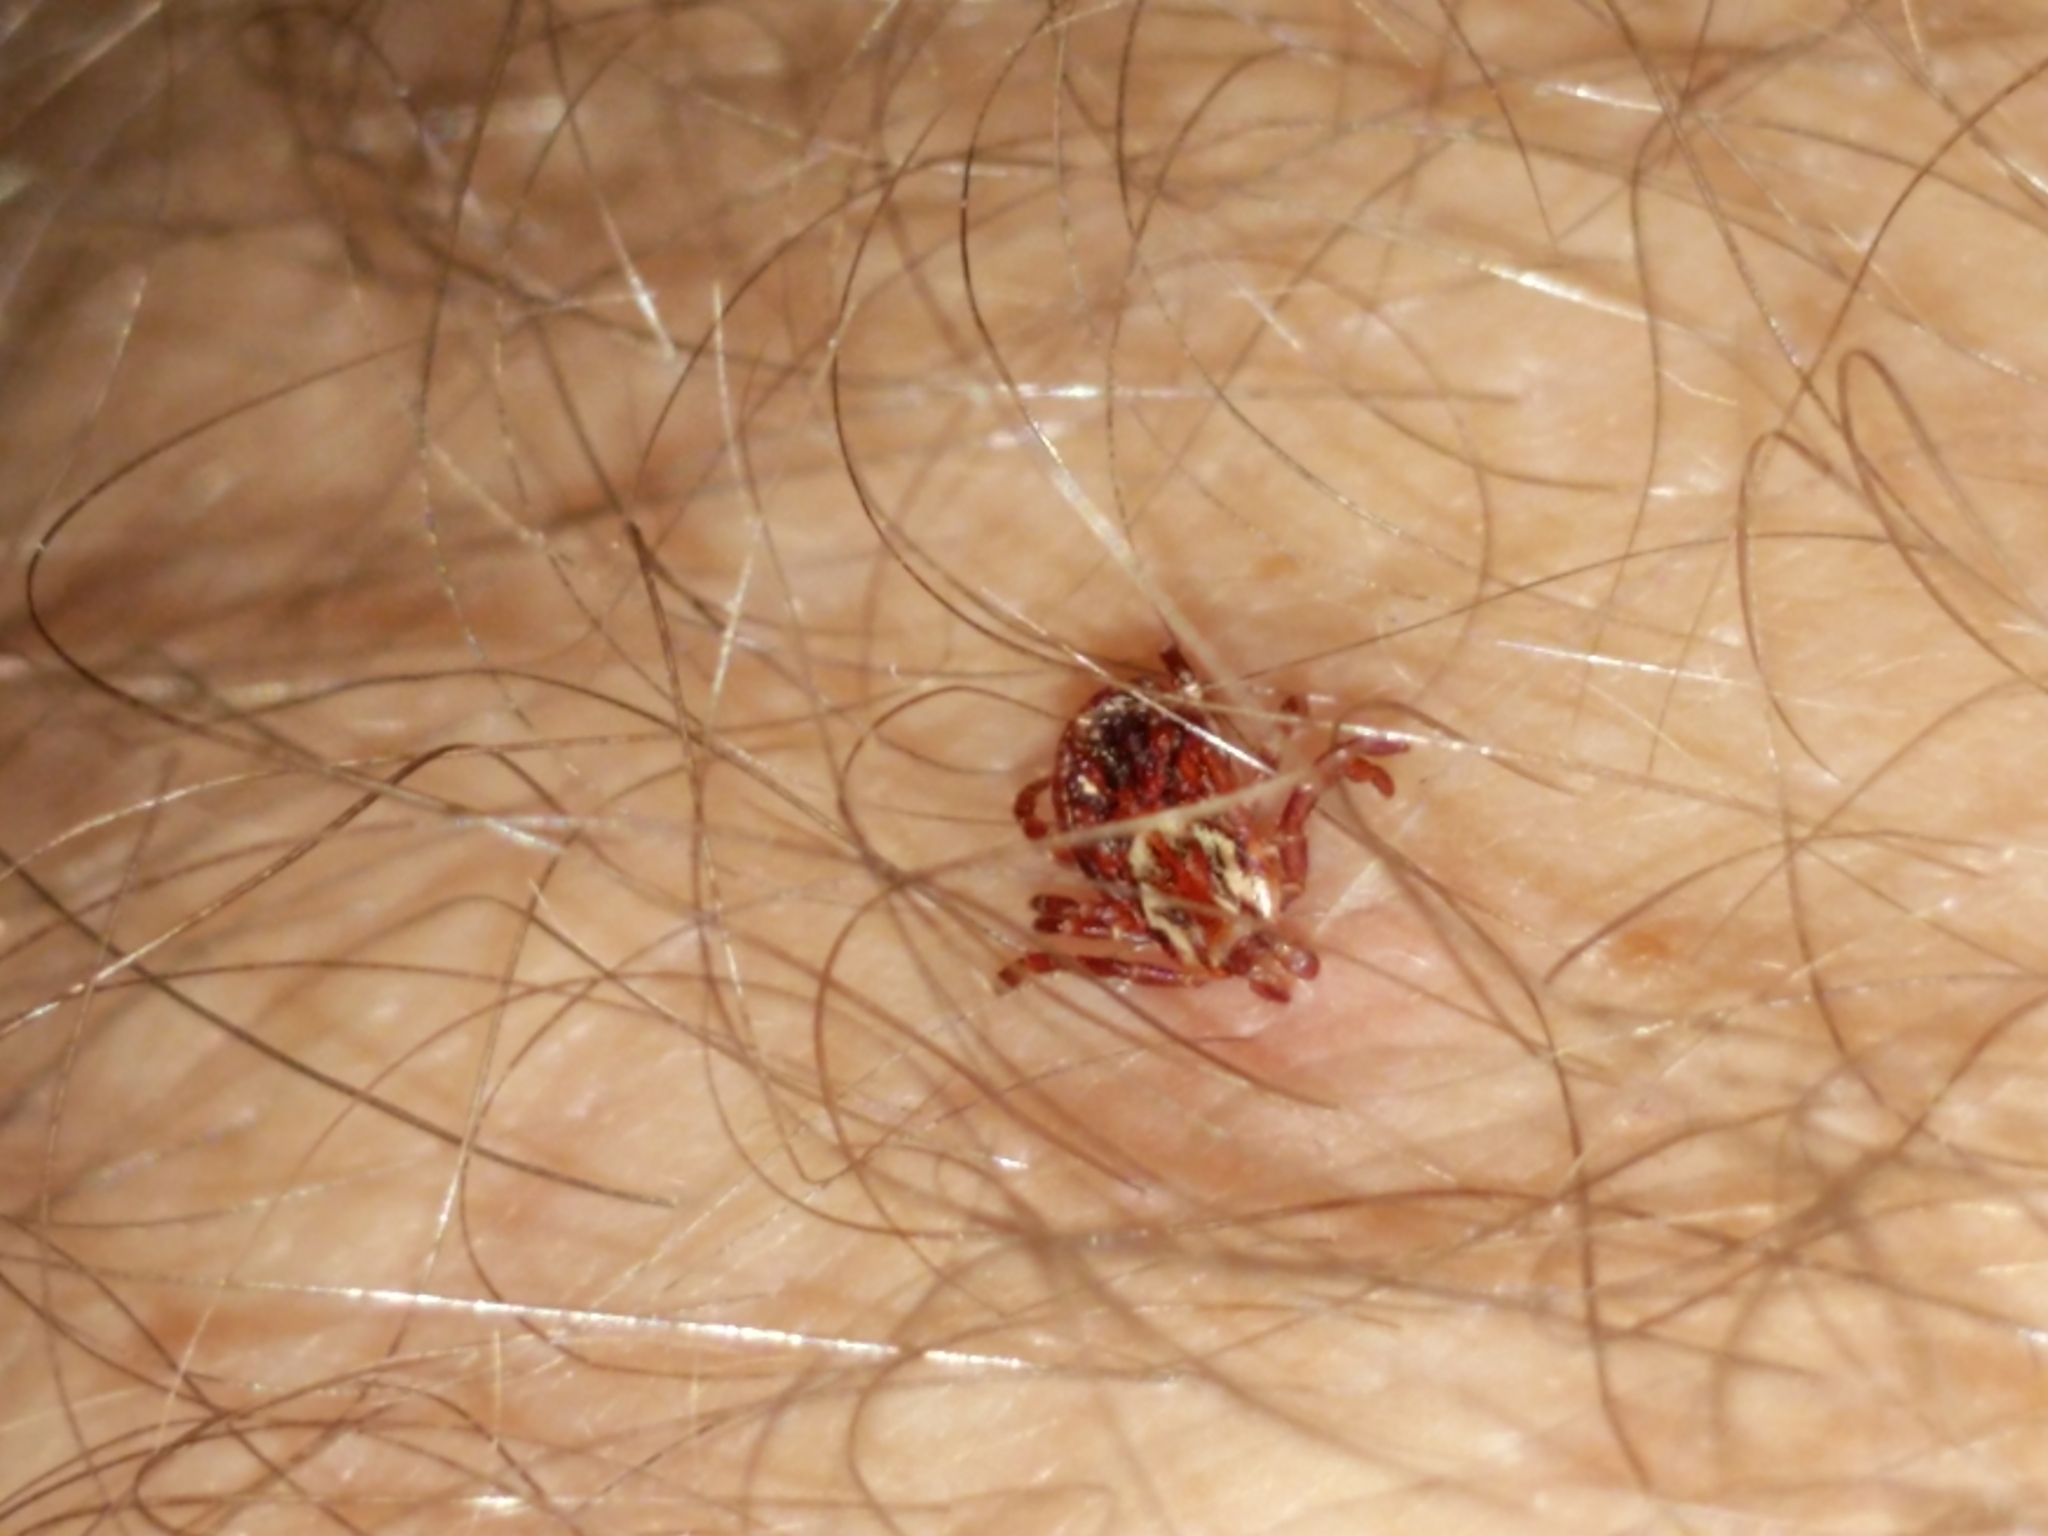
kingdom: Animalia
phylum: Arthropoda
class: Arachnida
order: Ixodida
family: Ixodidae
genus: Dermacentor
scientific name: Dermacentor variabilis
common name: American dog tick
